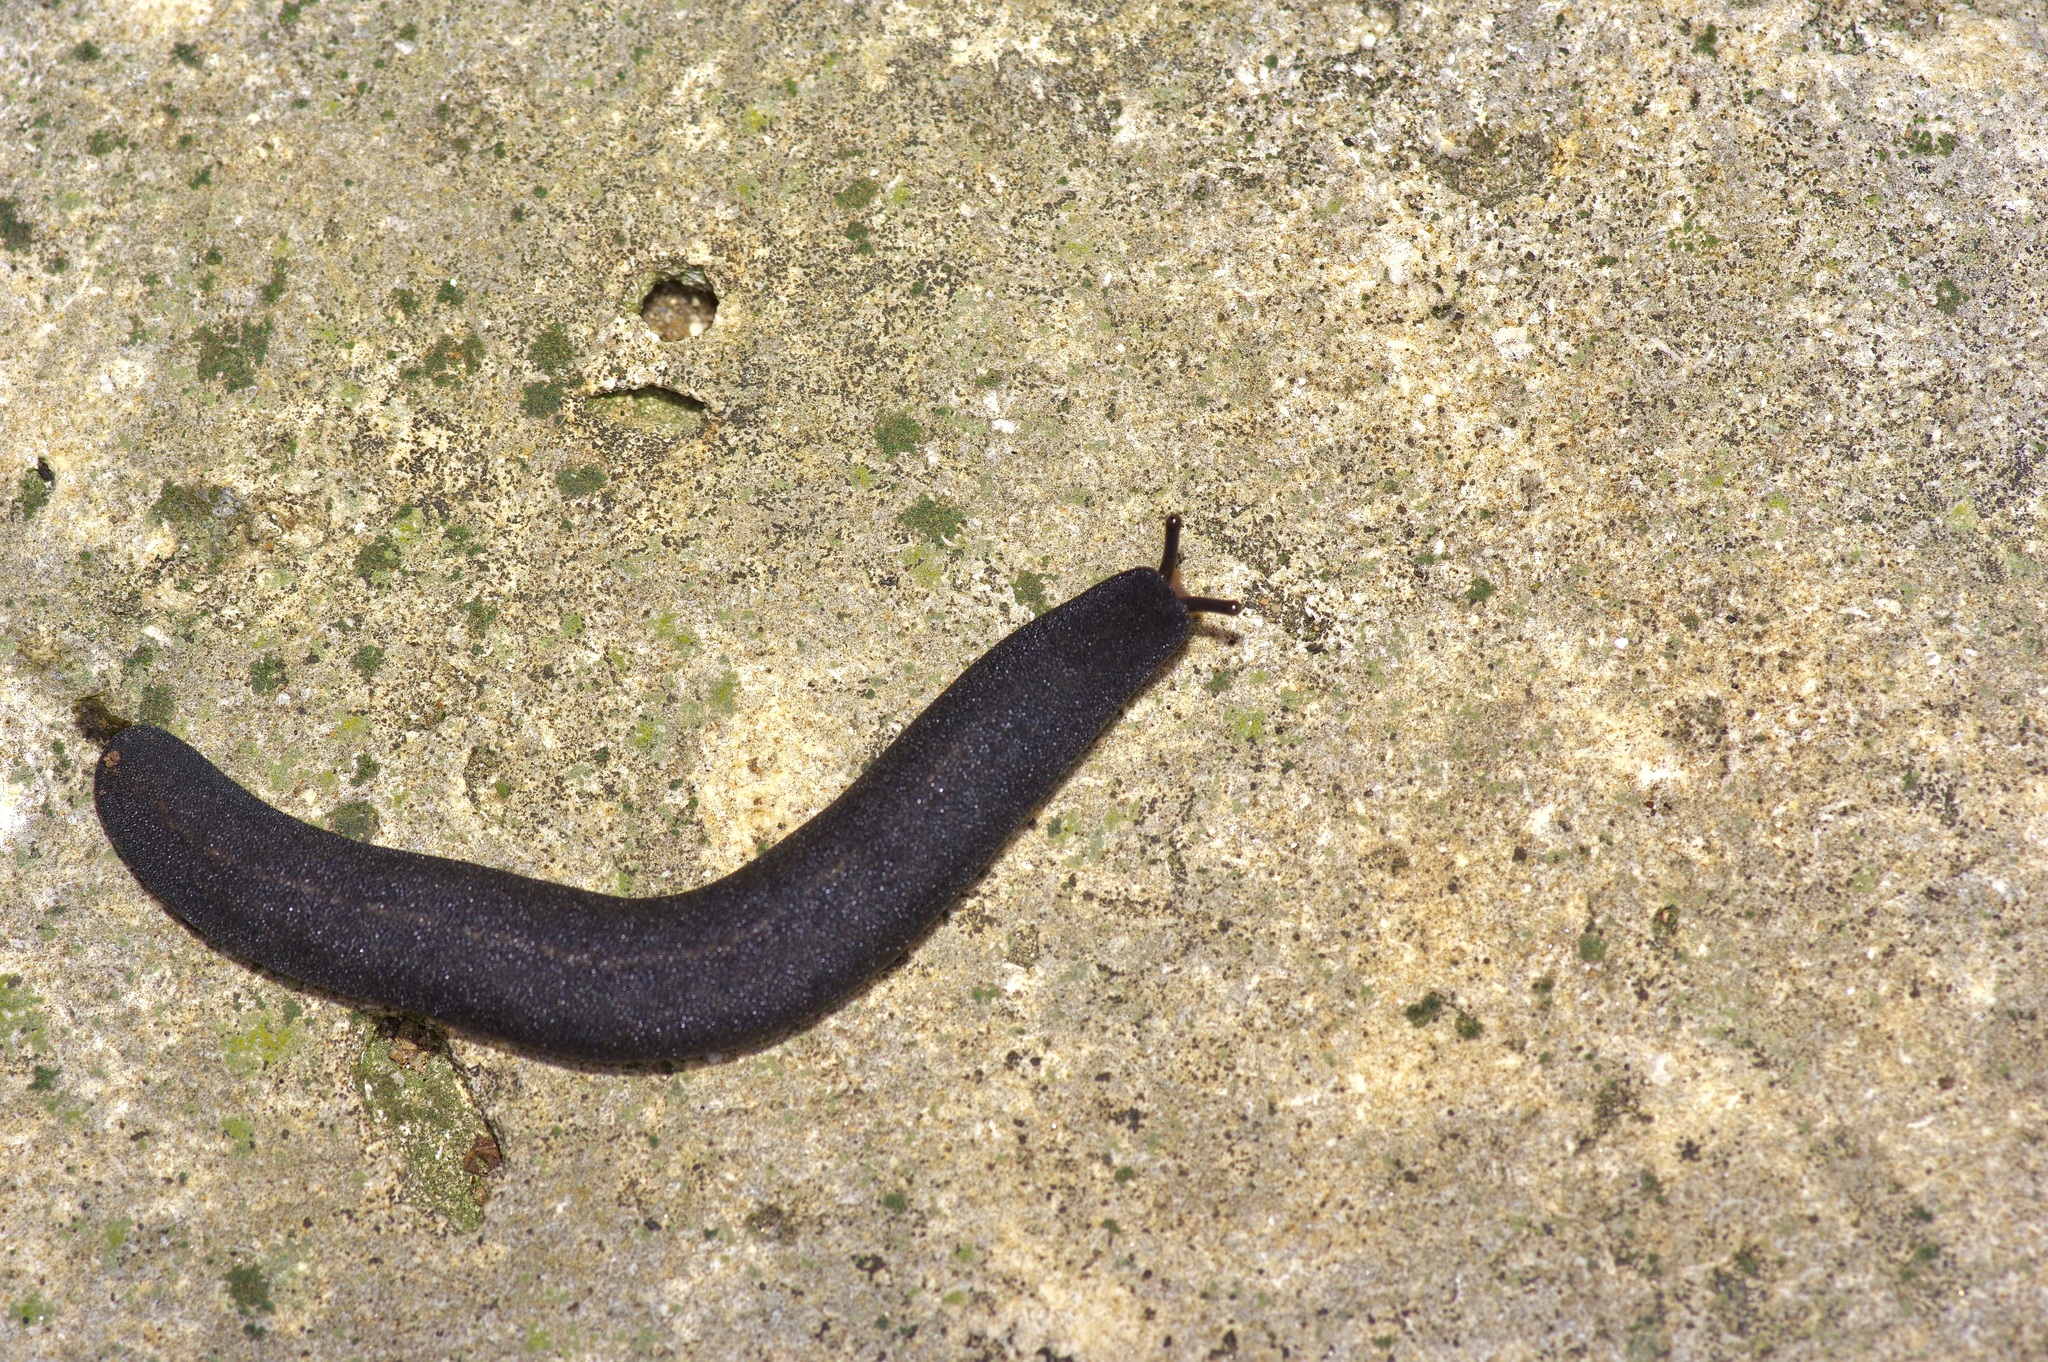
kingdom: Animalia
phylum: Mollusca
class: Gastropoda
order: Systellommatophora
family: Veronicellidae
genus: Belocaulus
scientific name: Belocaulus angustipes
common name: Black velvet leatherleaf slug
